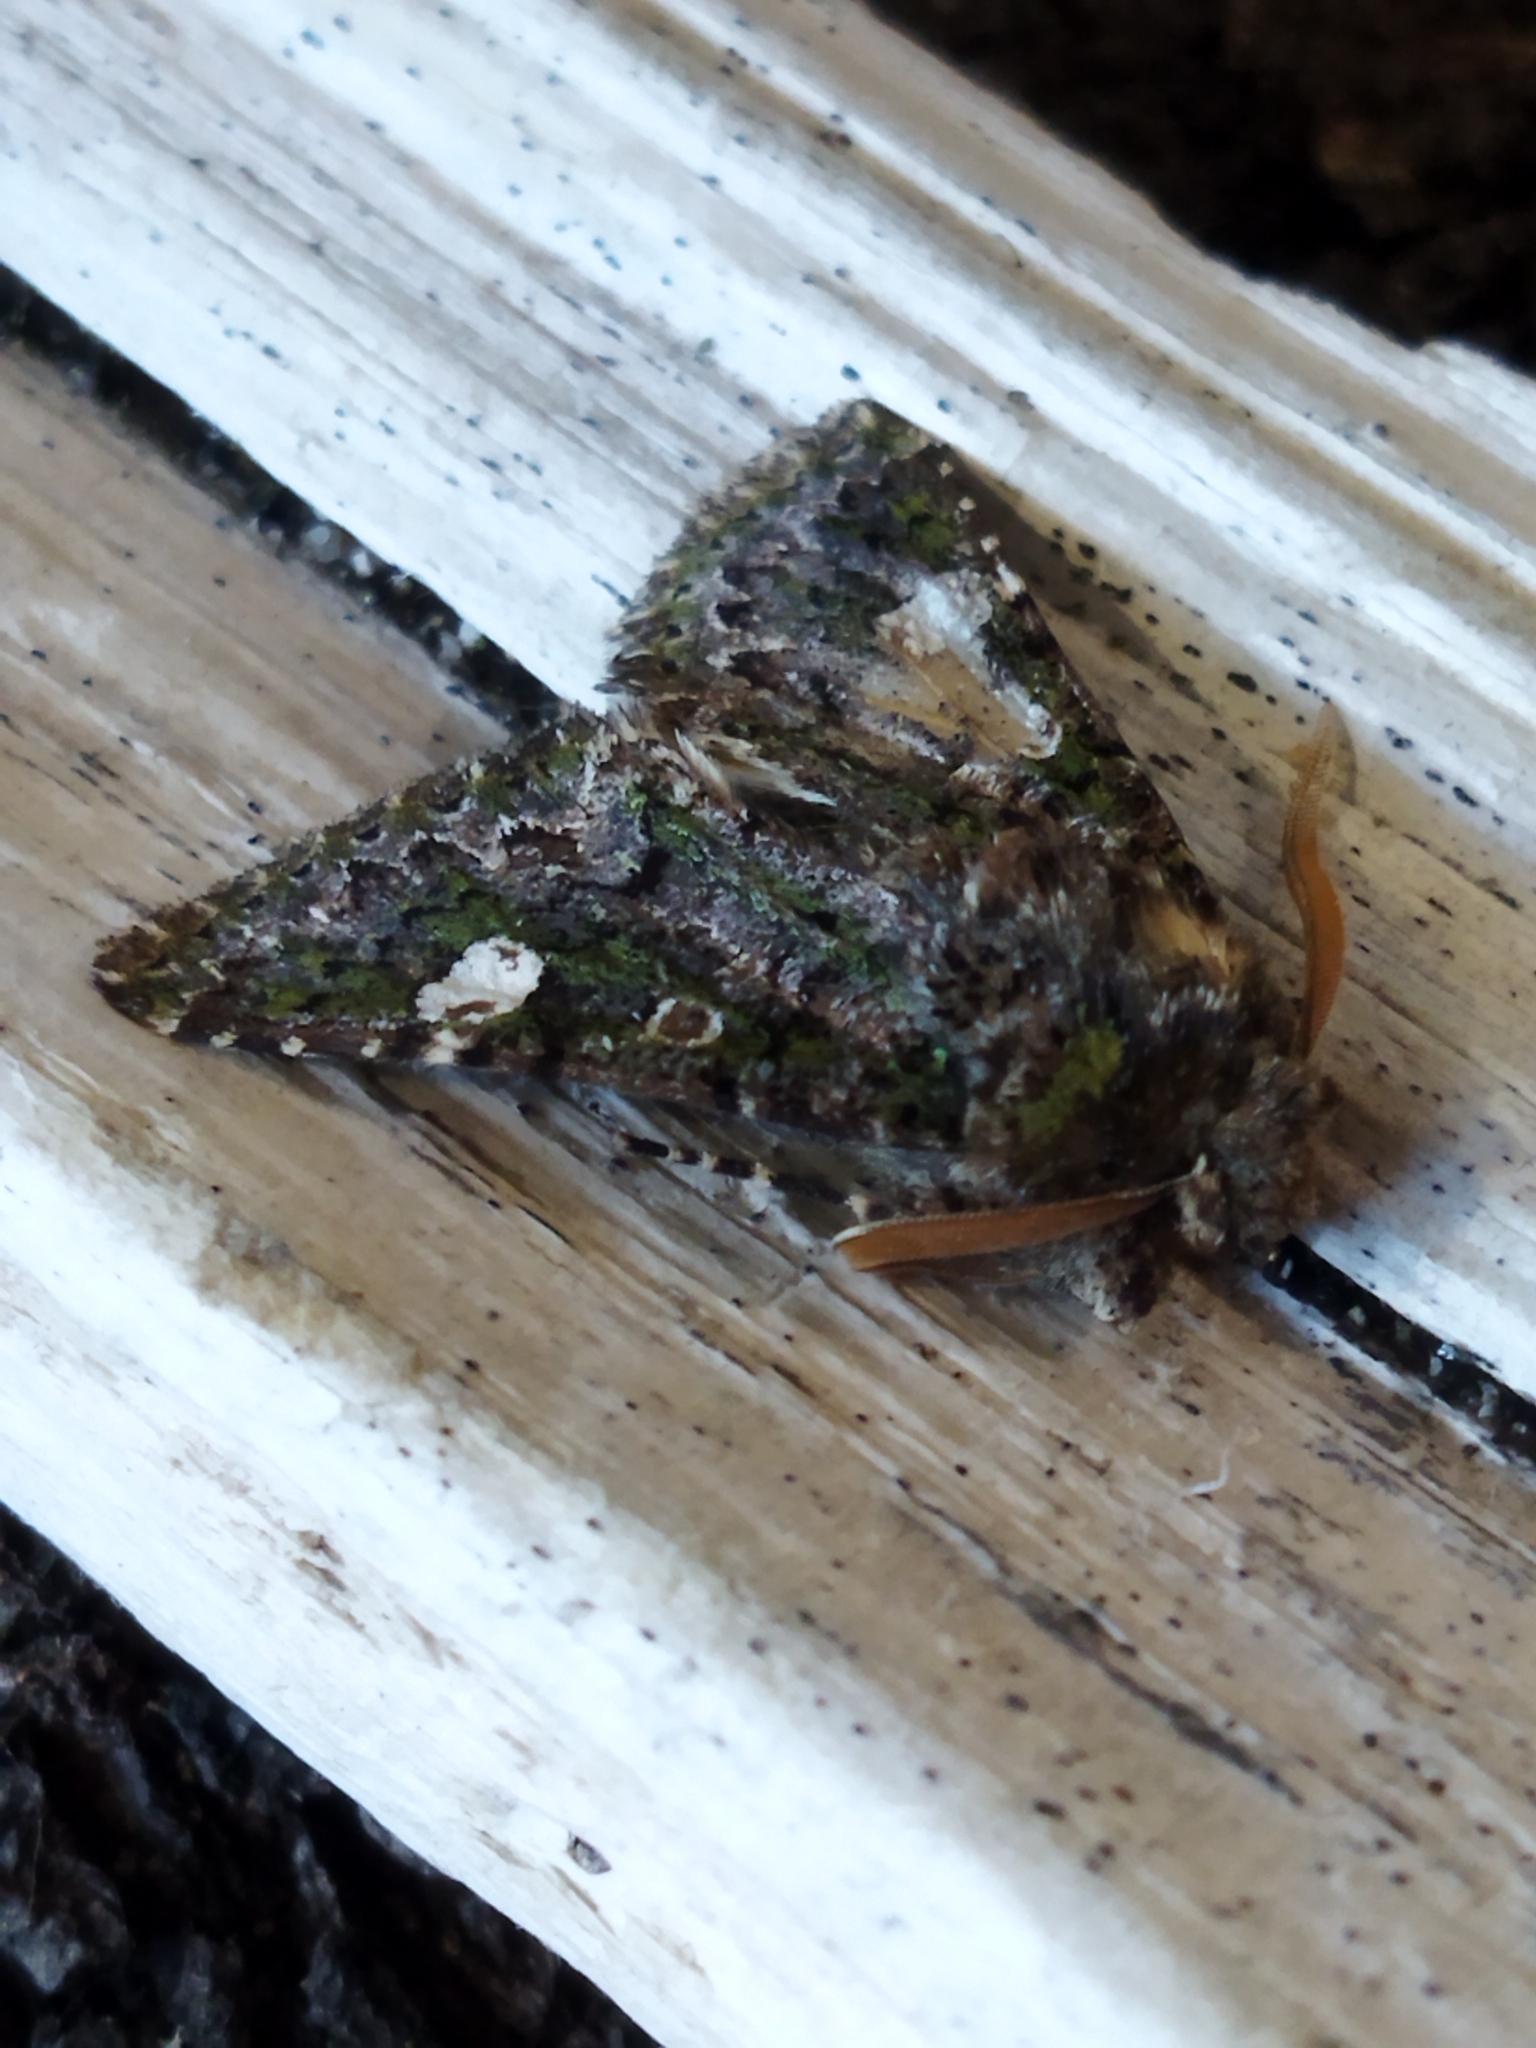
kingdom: Animalia
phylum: Arthropoda
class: Insecta
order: Lepidoptera
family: Noctuidae
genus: Valeria
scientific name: Valeria oleagina
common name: Green-brindled dot
